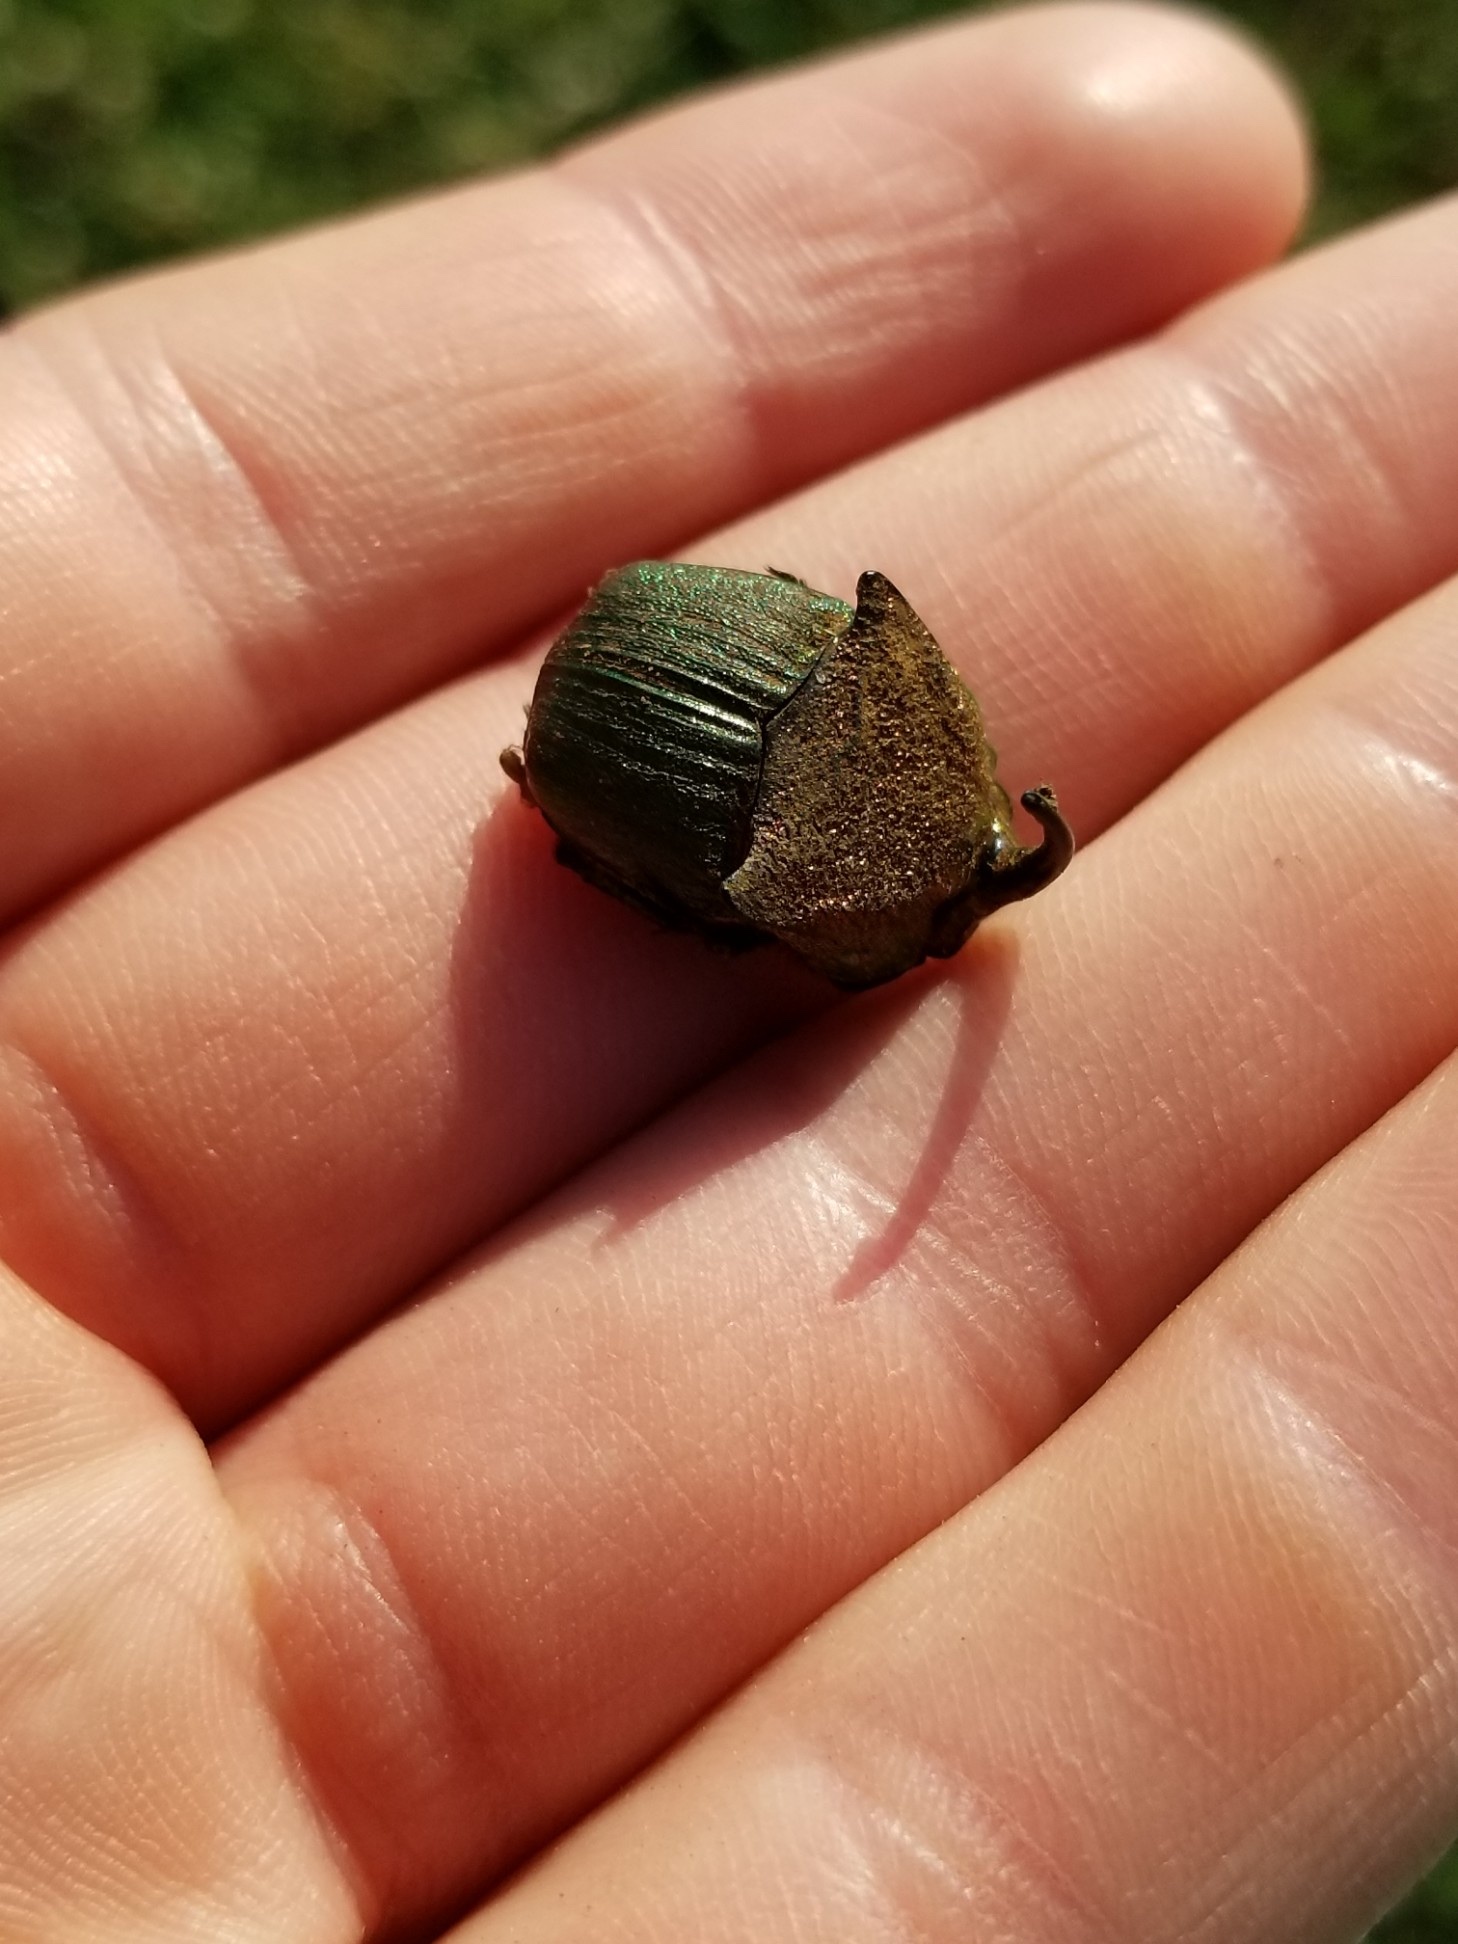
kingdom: Animalia
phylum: Arthropoda
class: Insecta
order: Coleoptera
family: Scarabaeidae
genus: Phanaeus
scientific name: Phanaeus vindex
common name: Rainbow scarab
